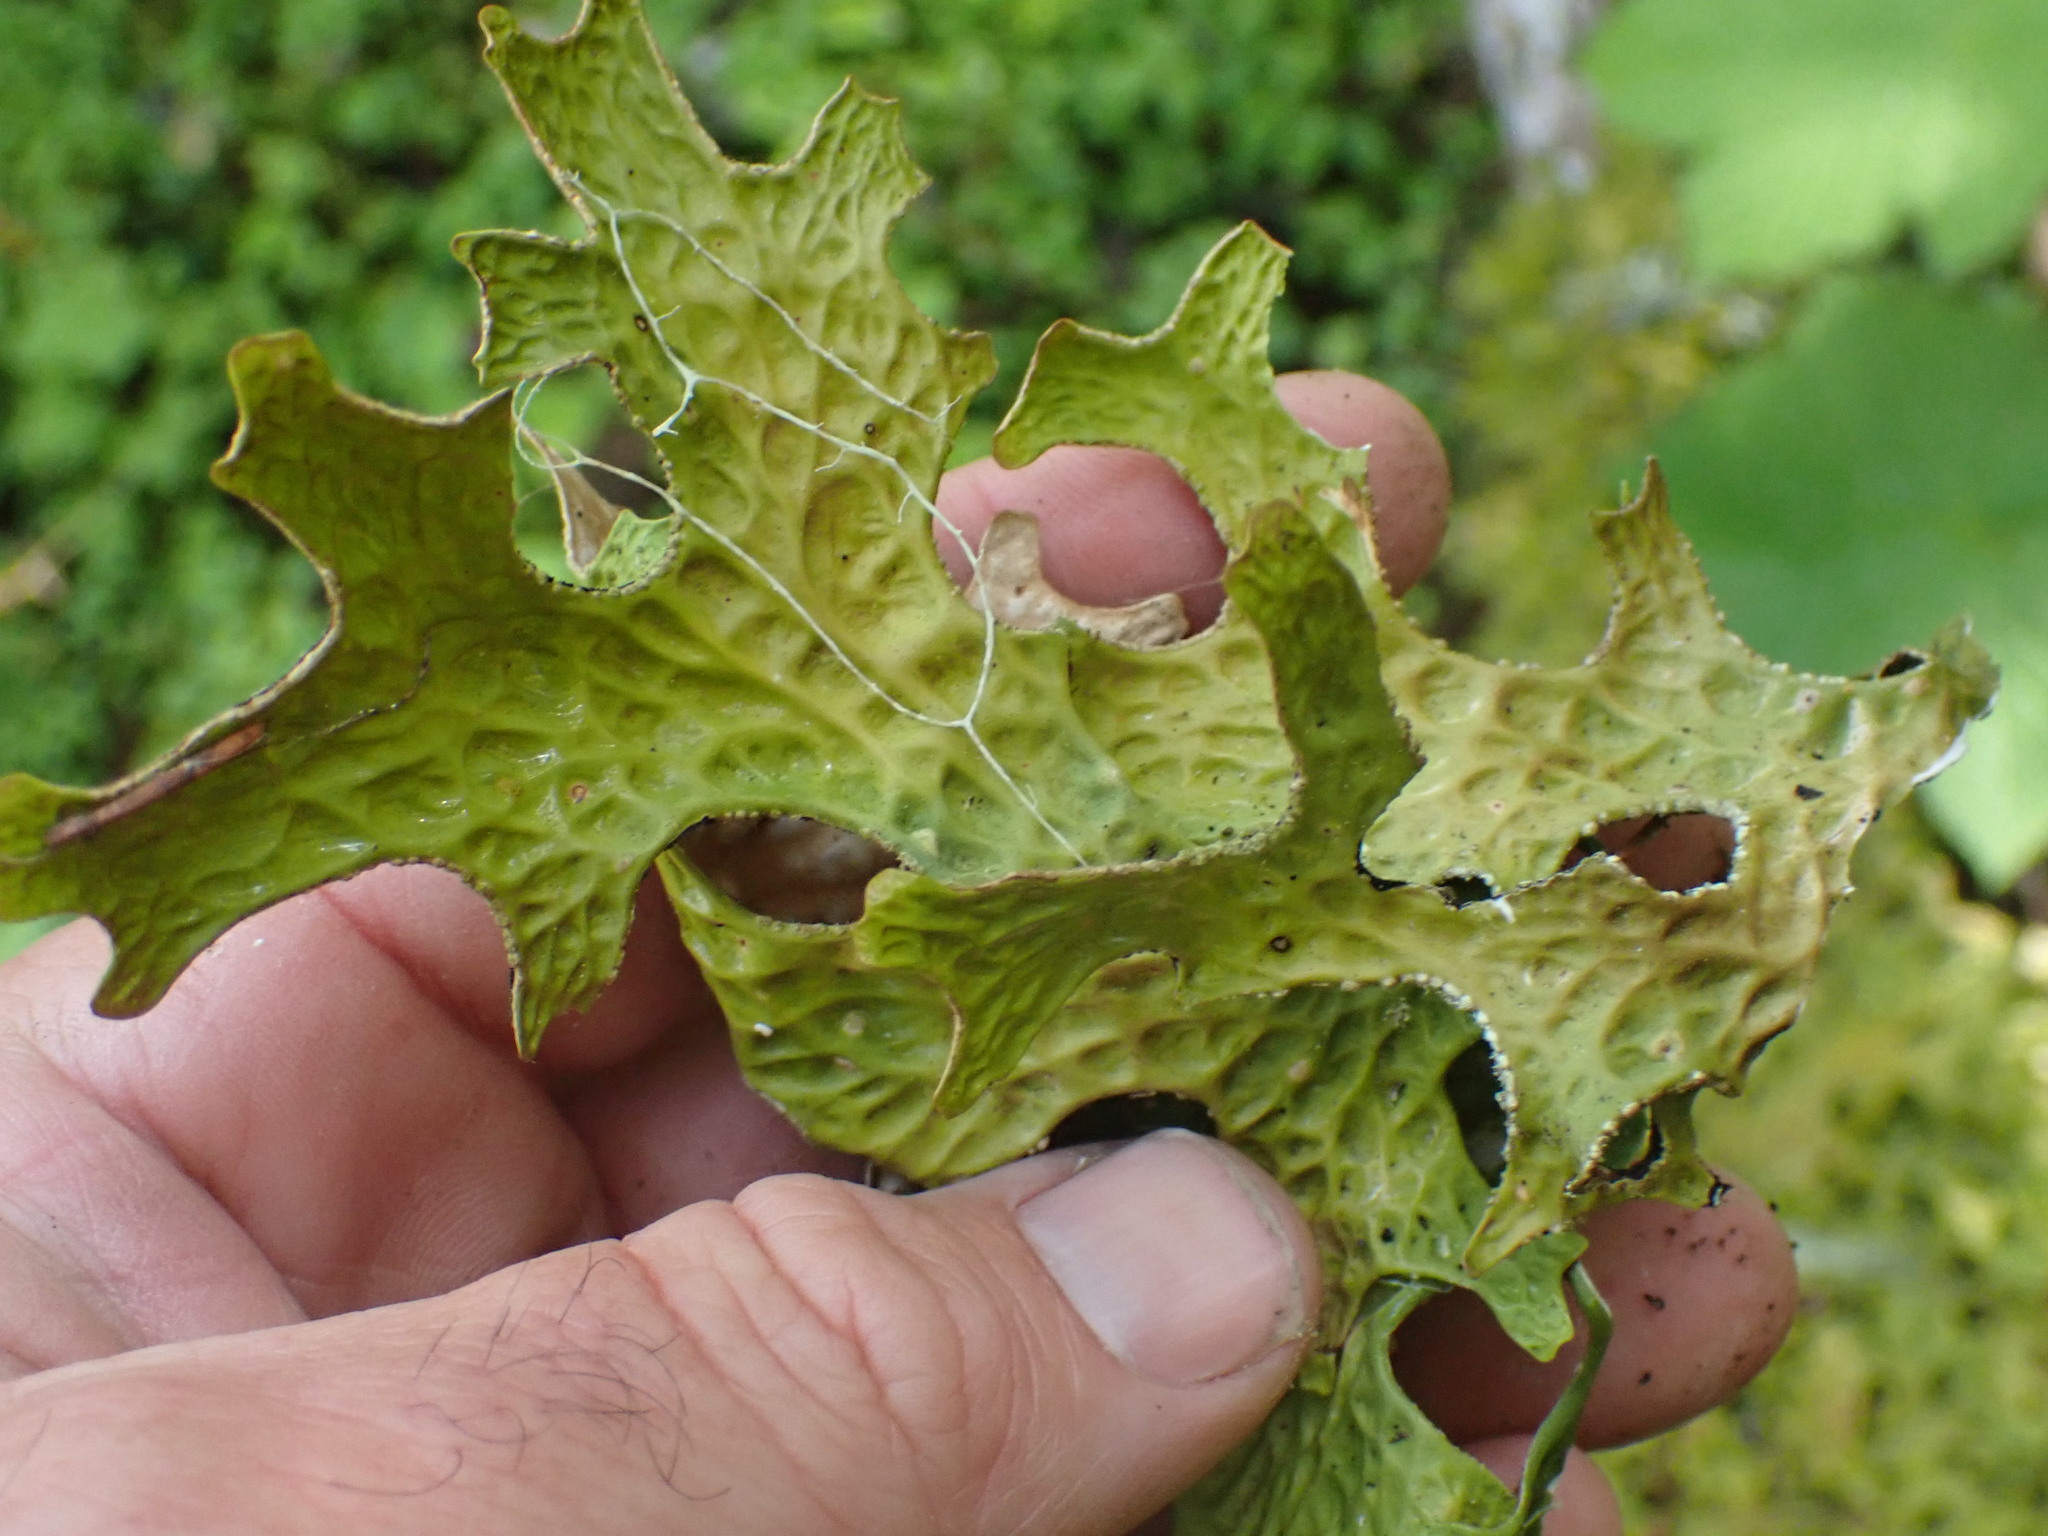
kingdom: Fungi
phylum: Ascomycota
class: Lecanoromycetes
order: Peltigerales
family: Lobariaceae
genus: Lobaria
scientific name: Lobaria pulmonaria
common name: Lungwort
